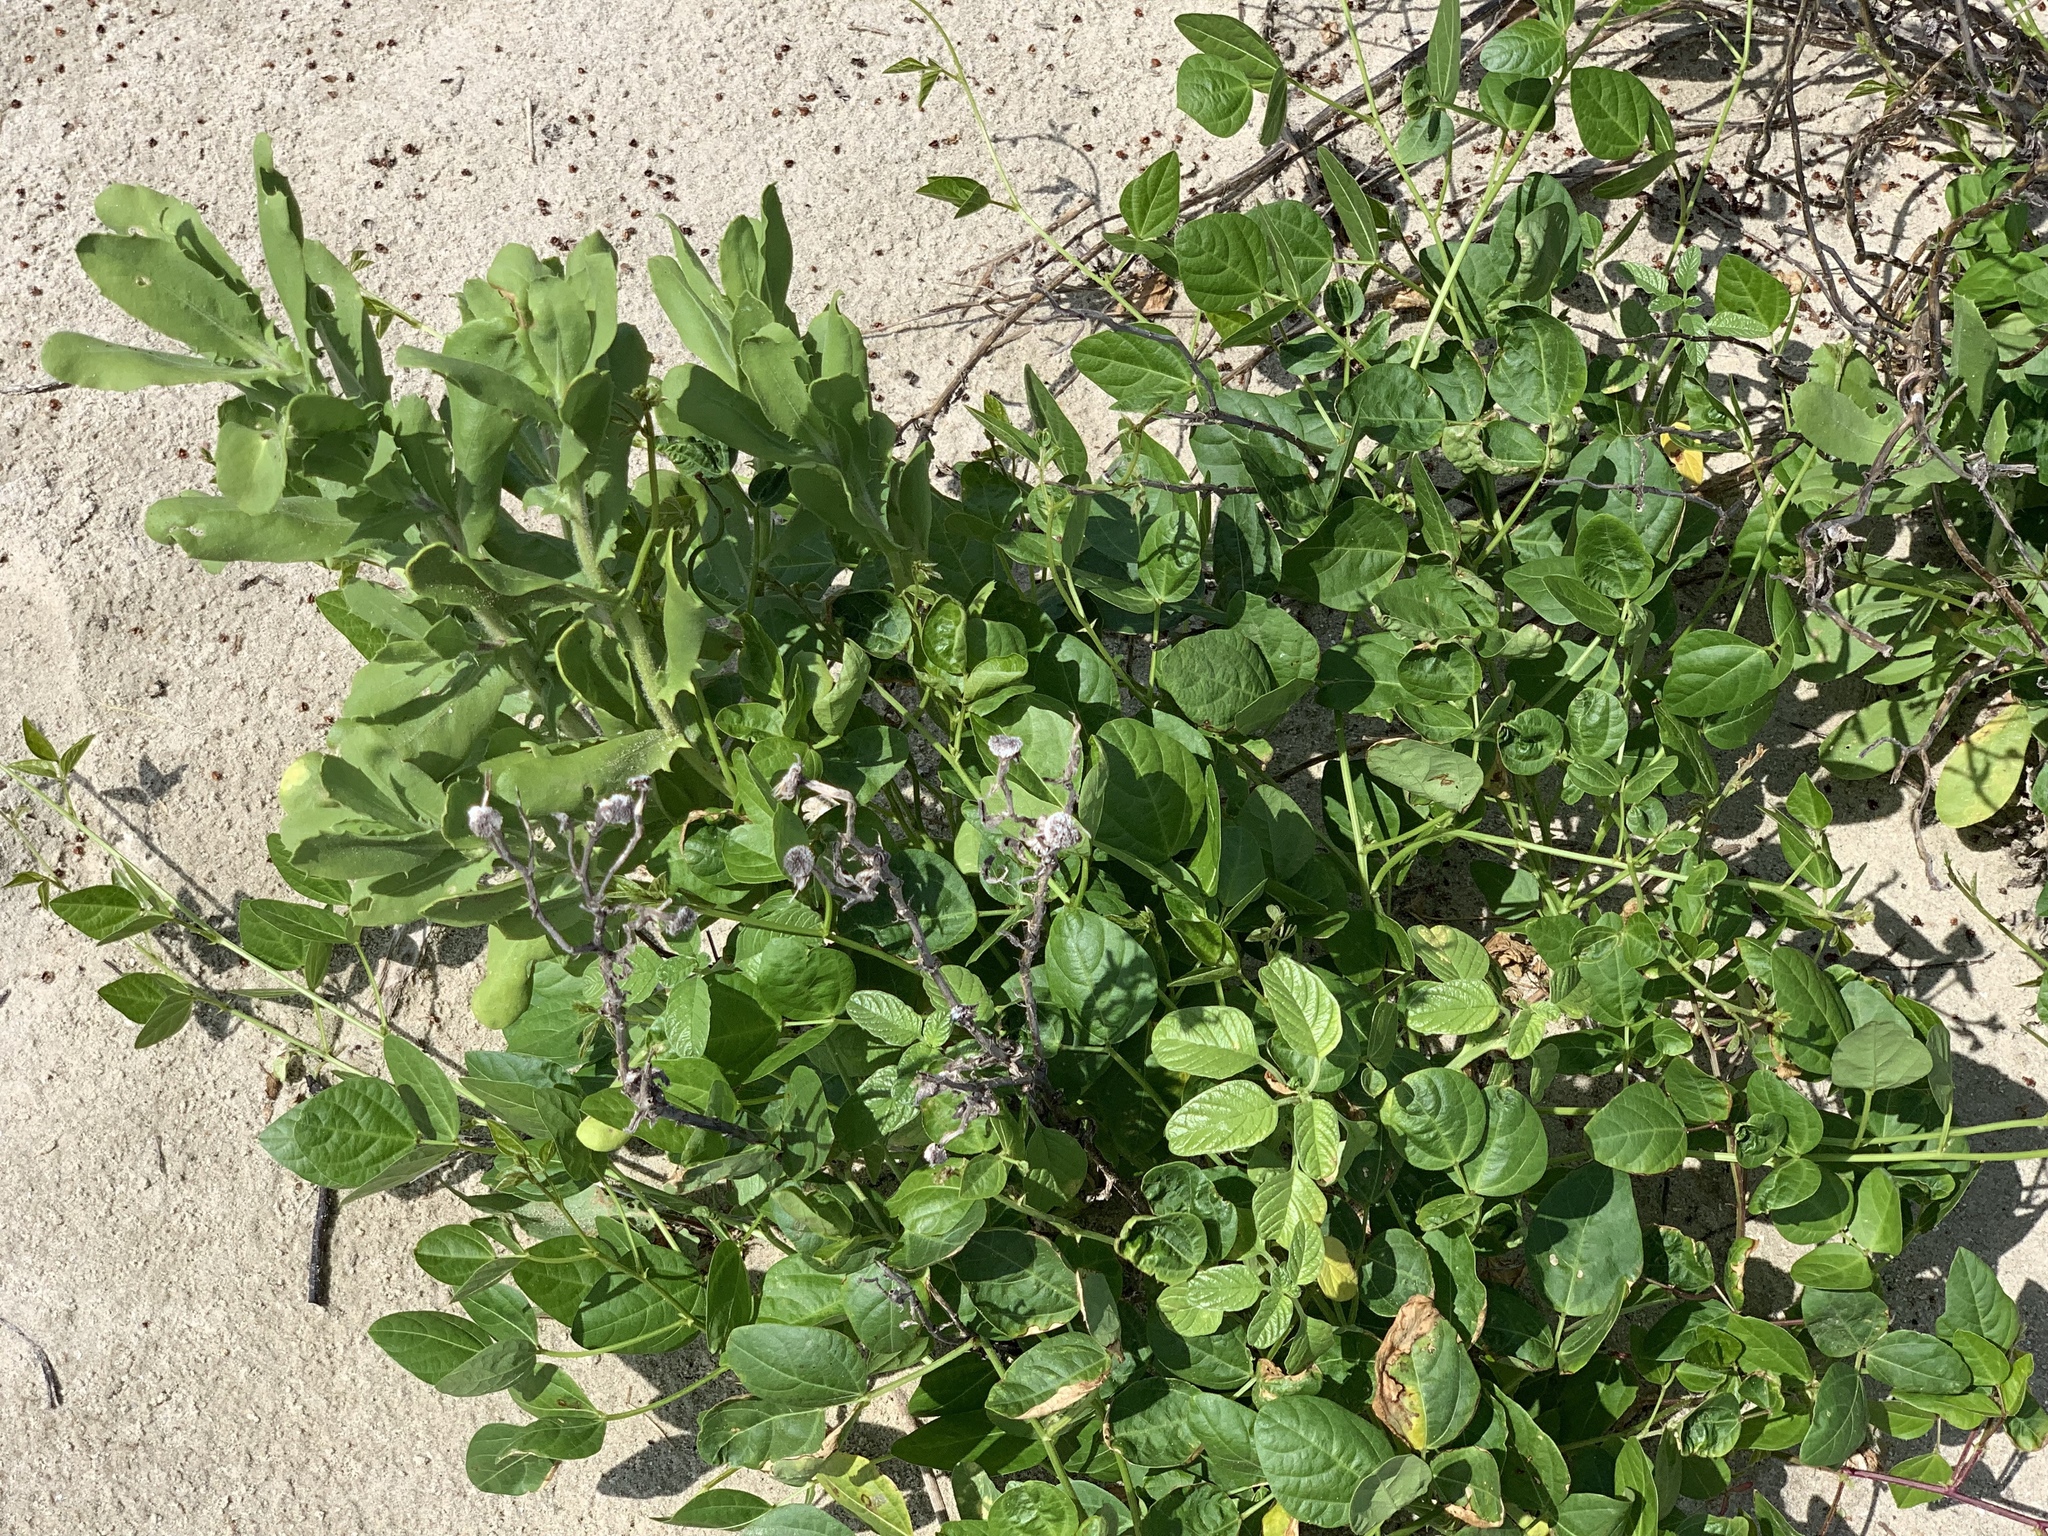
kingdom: Plantae
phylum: Tracheophyta
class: Magnoliopsida
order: Fabales
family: Fabaceae
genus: Canavalia
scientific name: Canavalia rosea
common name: Beach-bean
